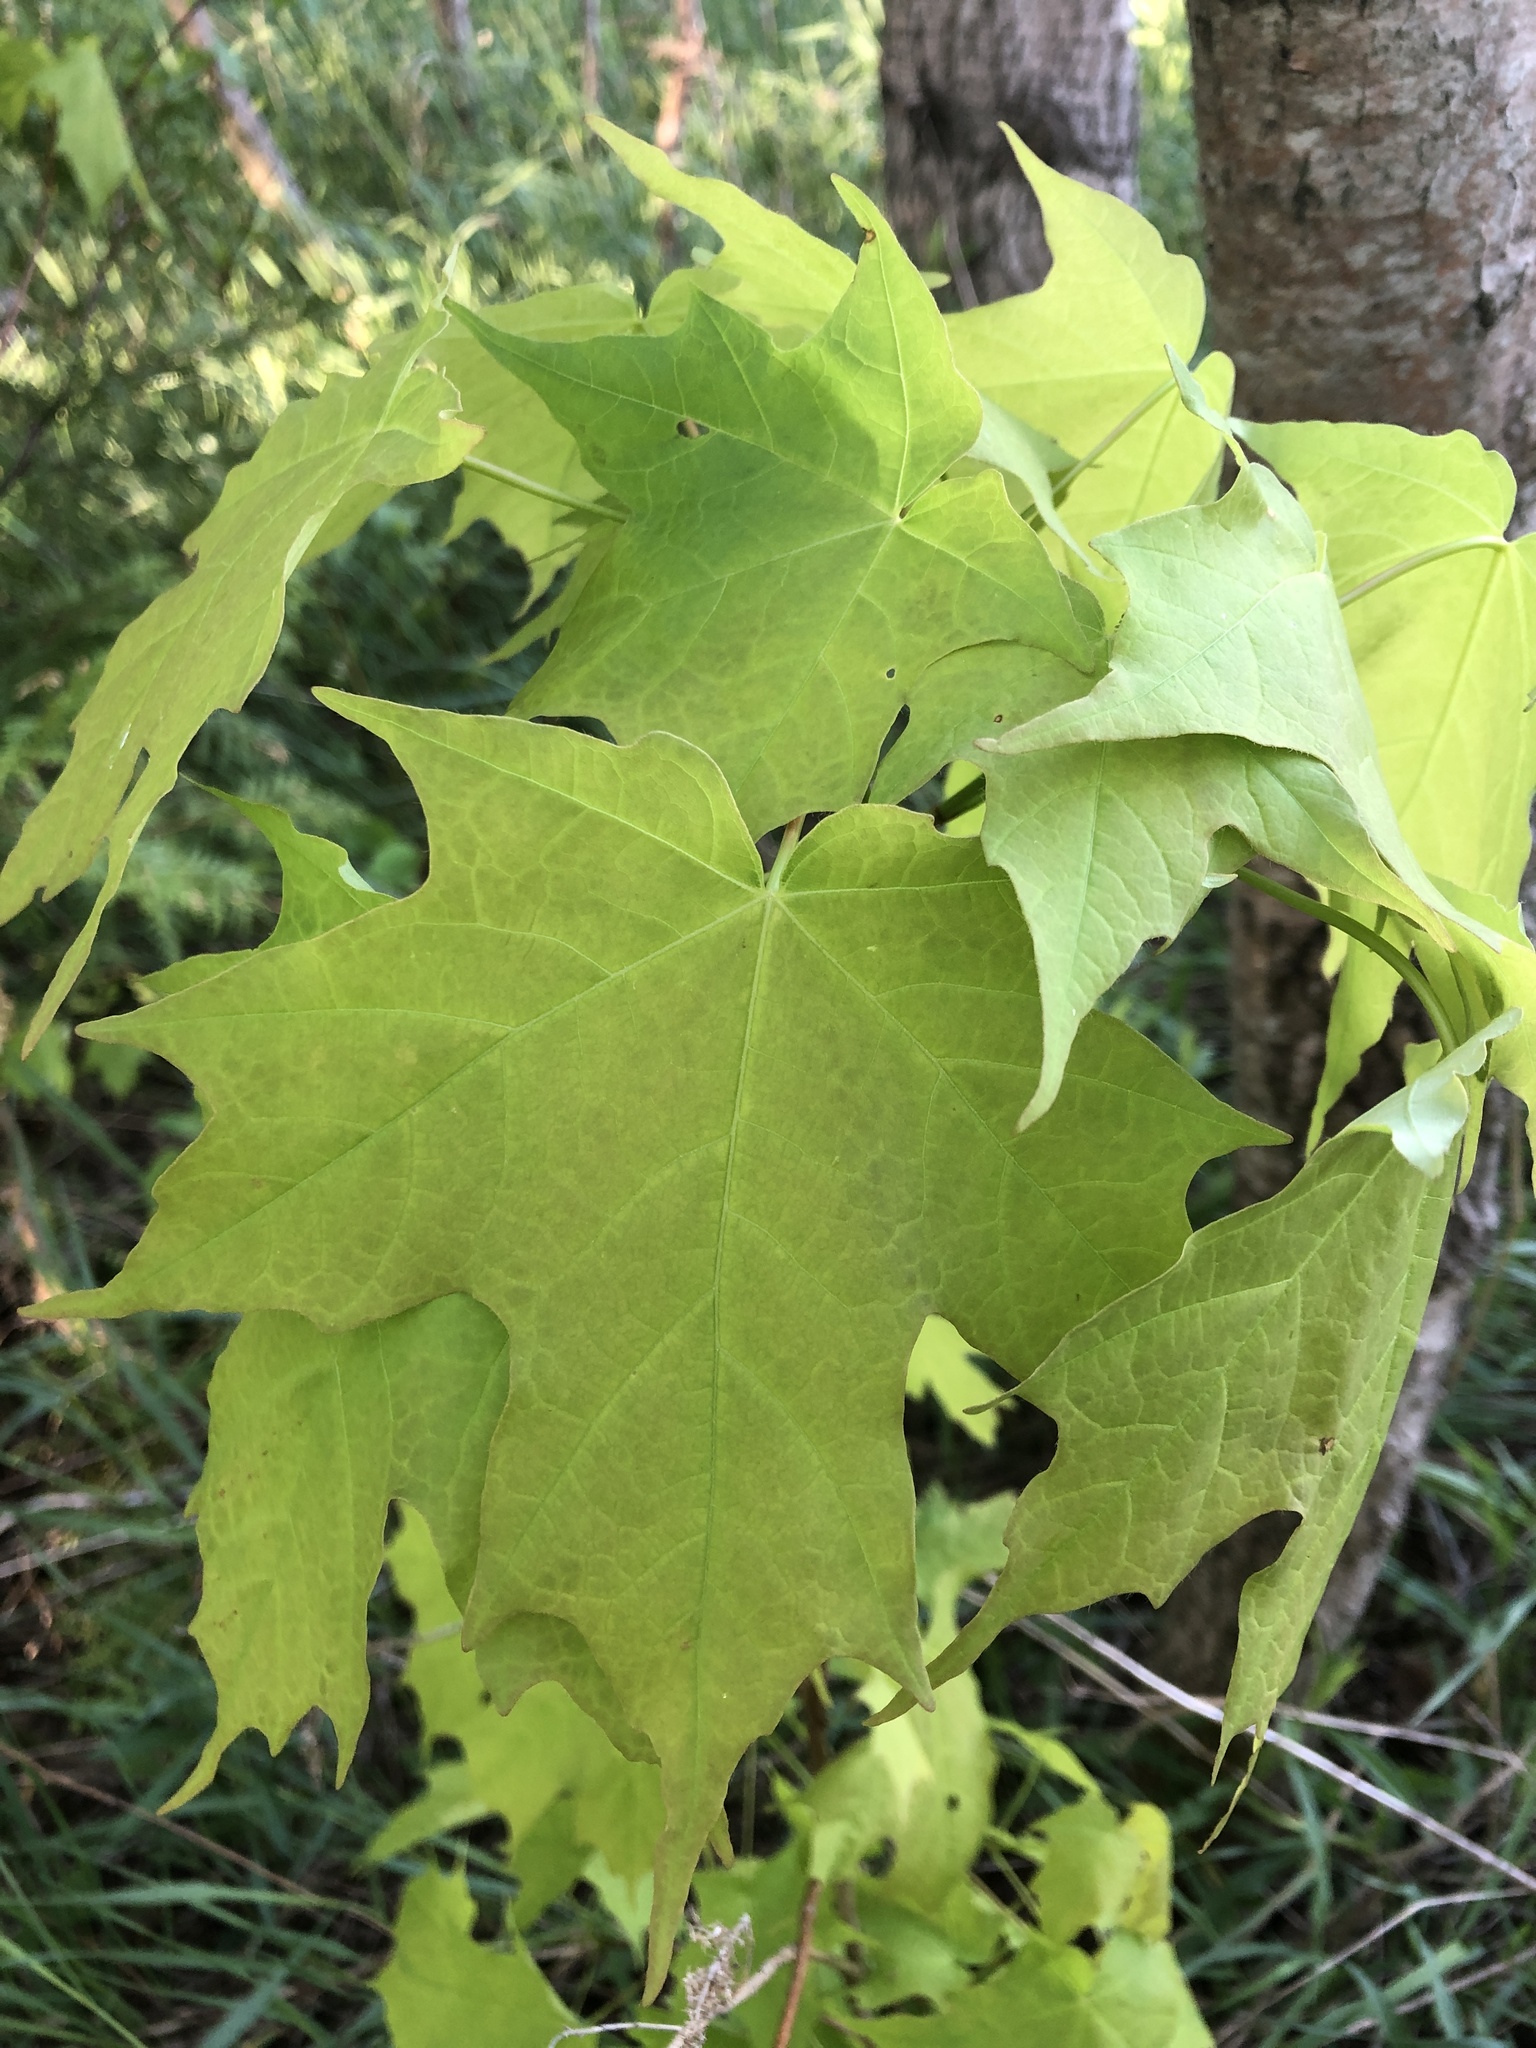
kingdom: Plantae
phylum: Tracheophyta
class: Magnoliopsida
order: Sapindales
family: Sapindaceae
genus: Acer
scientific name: Acer saccharum
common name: Sugar maple
